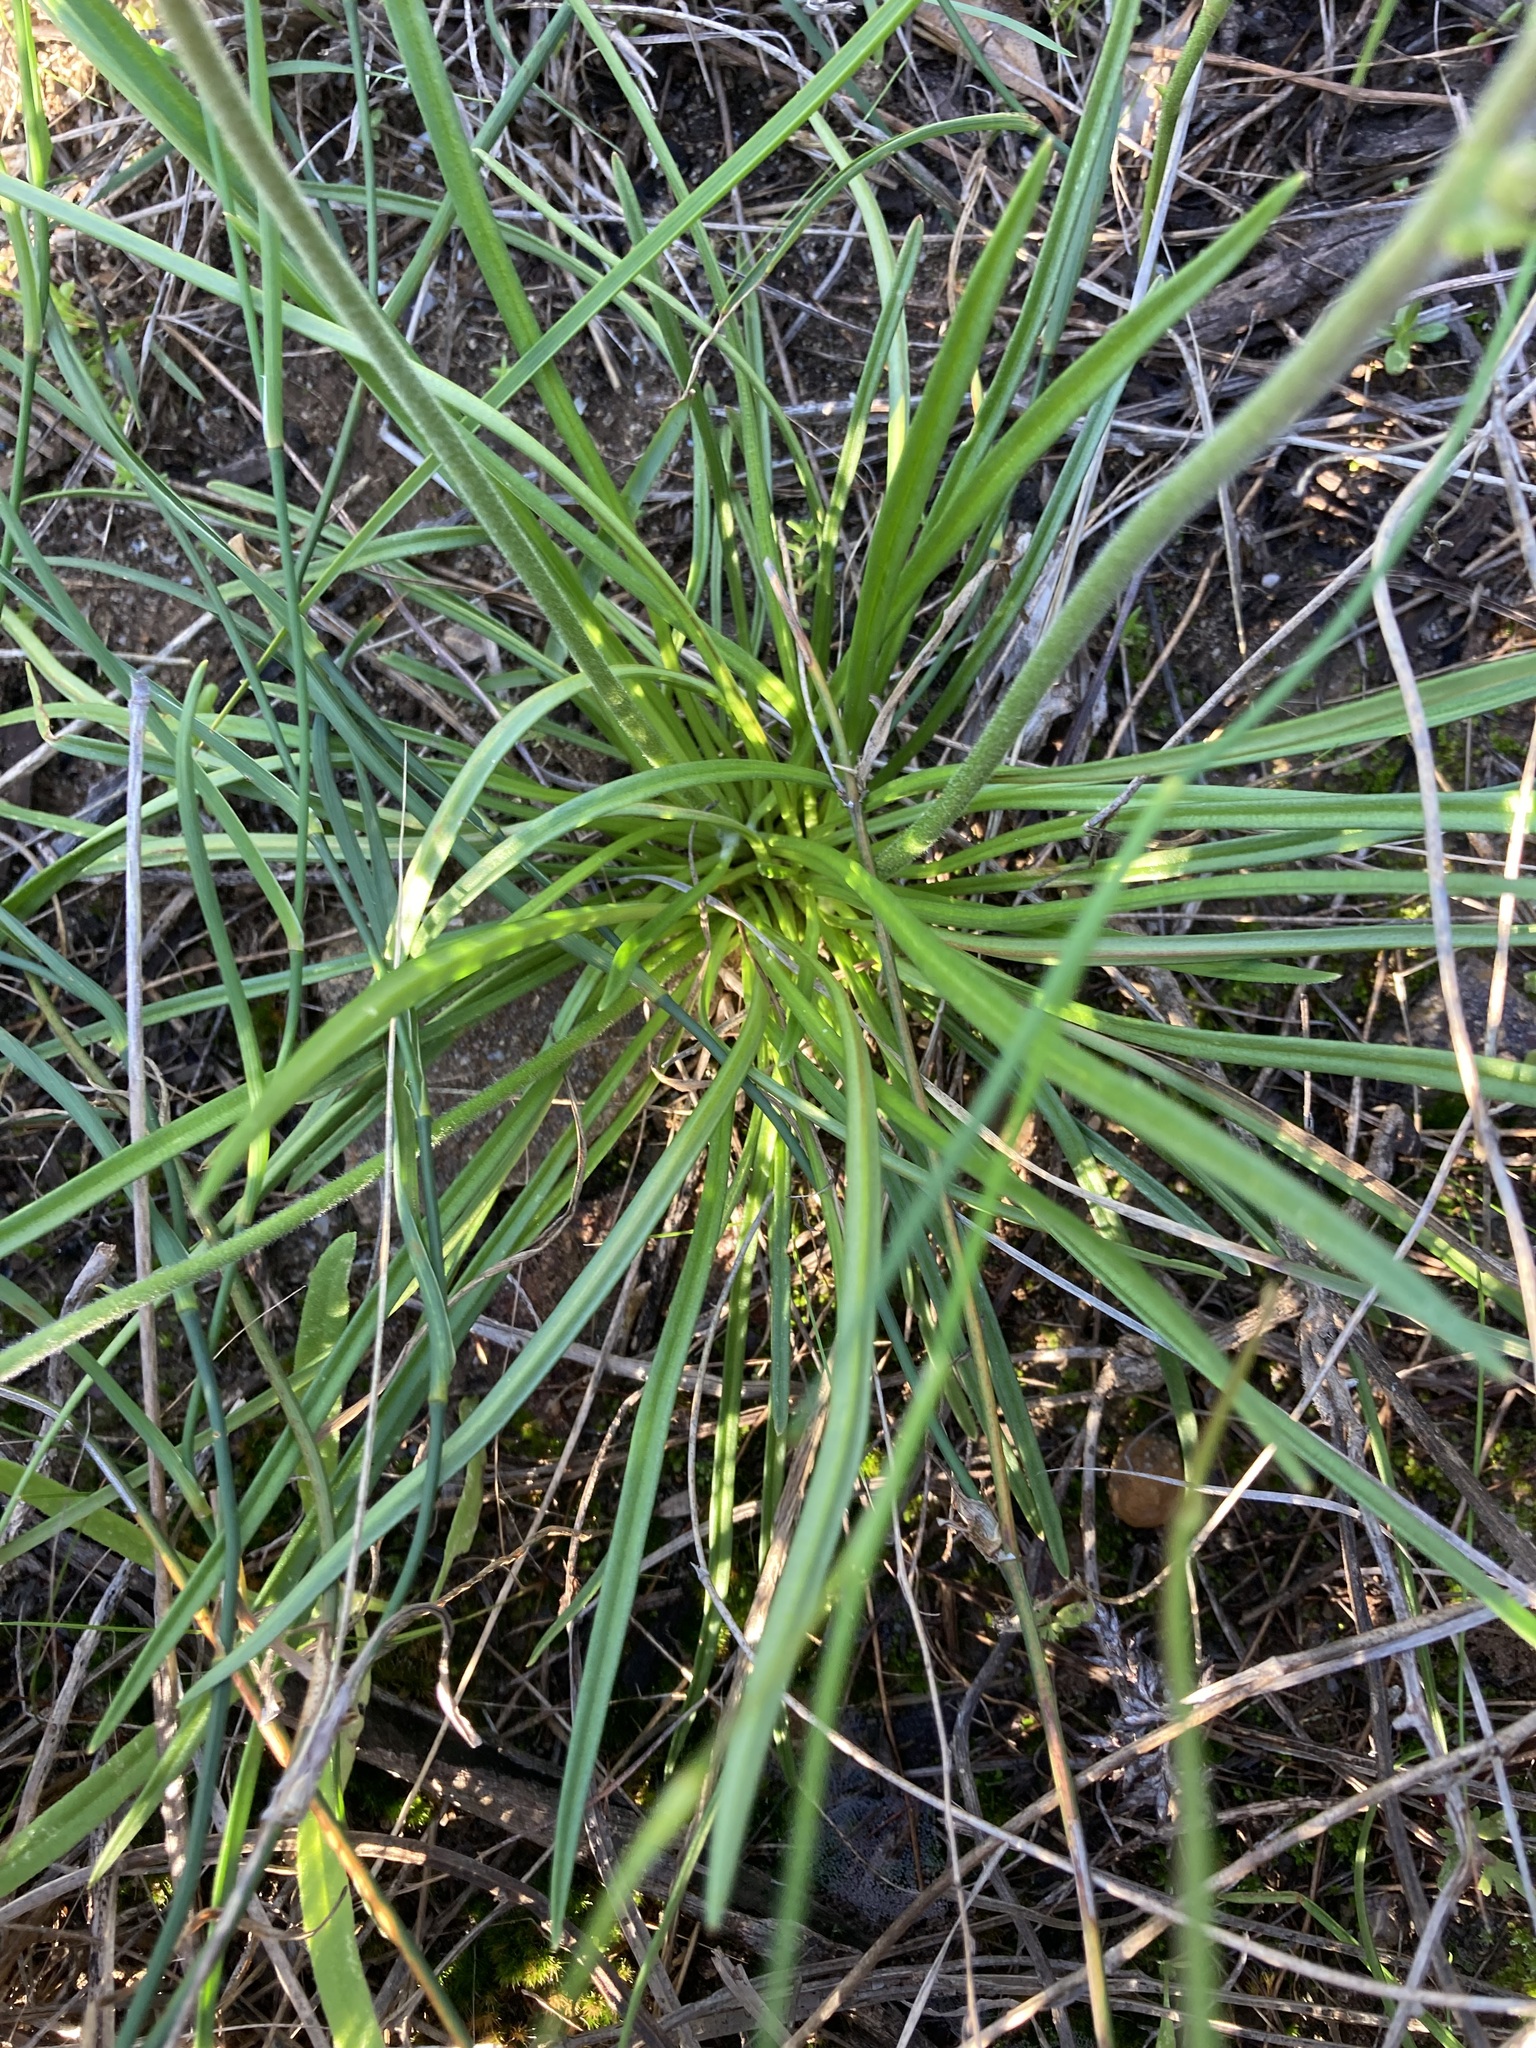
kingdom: Plantae
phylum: Tracheophyta
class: Magnoliopsida
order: Asterales
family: Stylidiaceae
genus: Stylidium
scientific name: Stylidium elongatum
